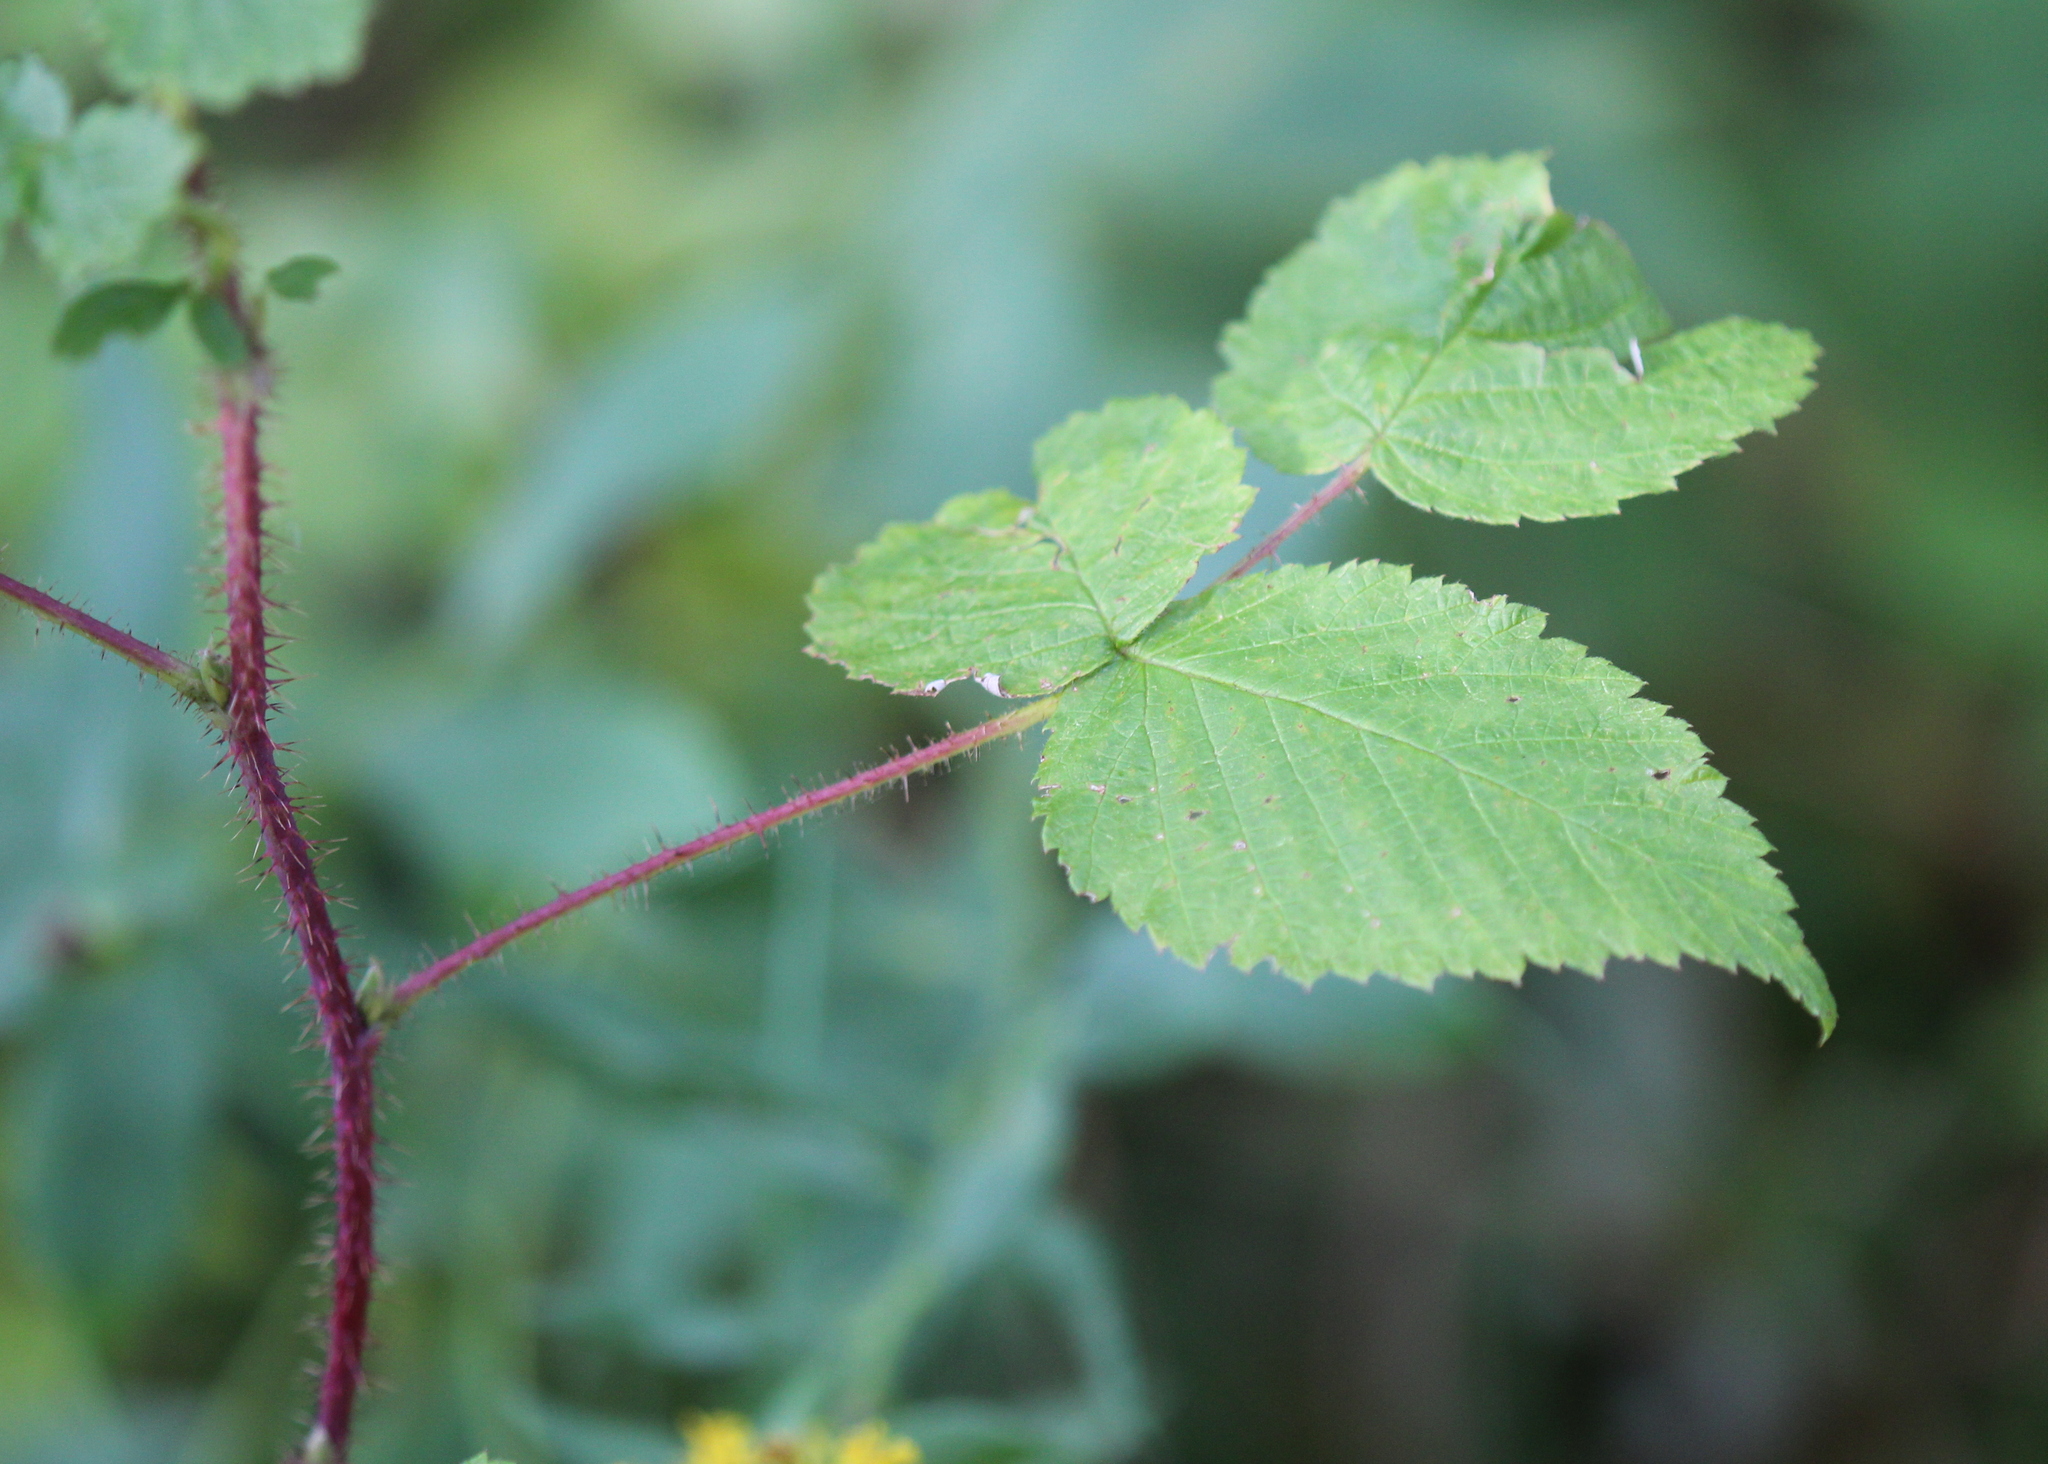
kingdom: Plantae
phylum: Tracheophyta
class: Magnoliopsida
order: Rosales
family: Rosaceae
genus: Rubus
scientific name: Rubus idaeus
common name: Raspberry
